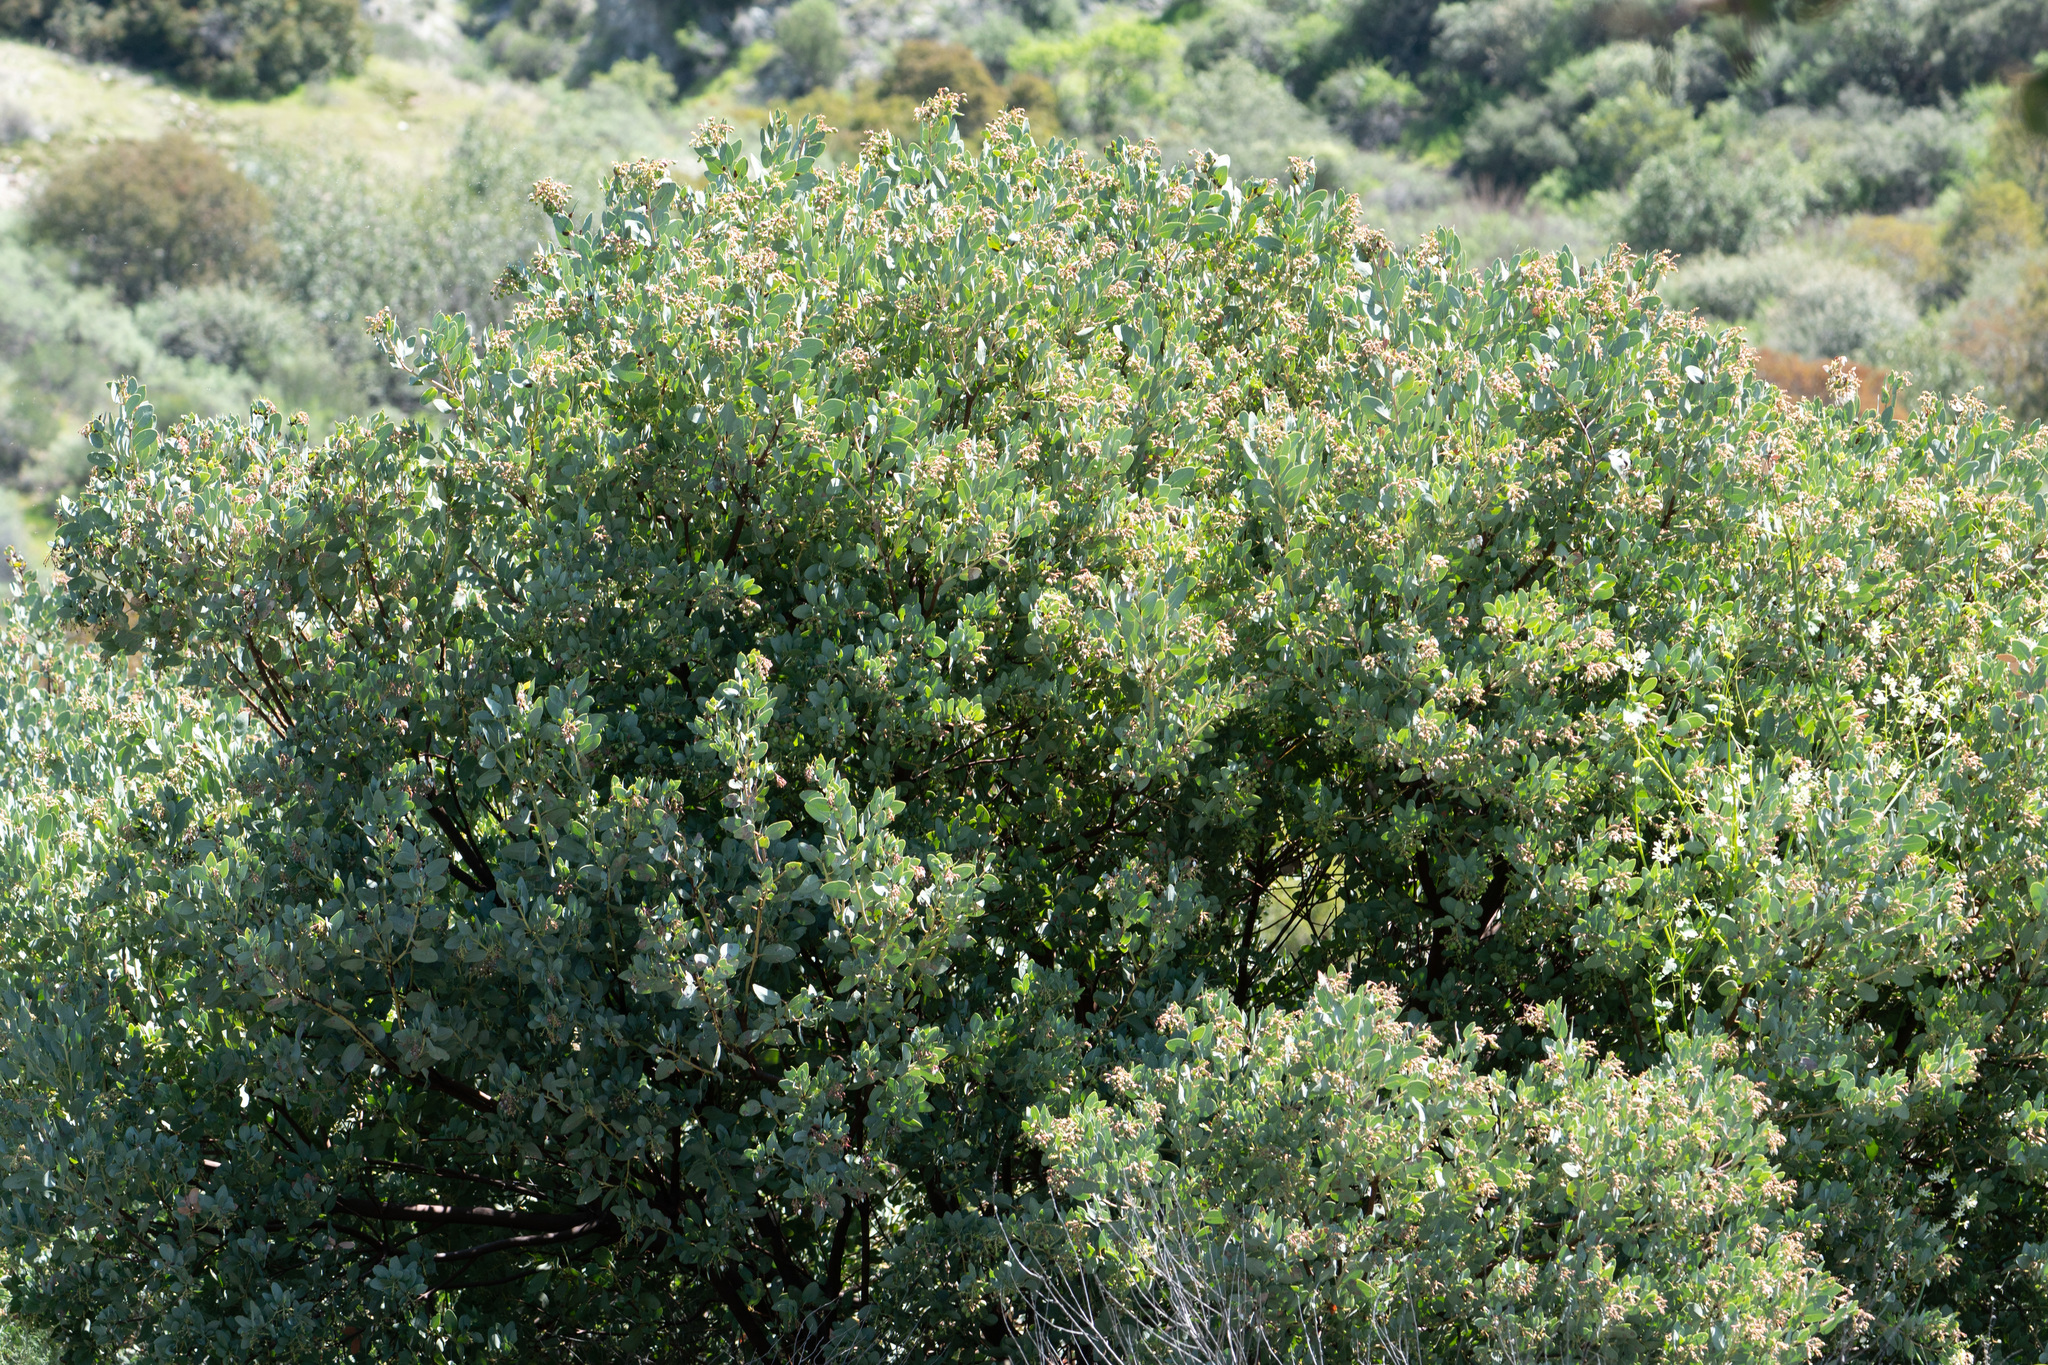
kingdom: Plantae
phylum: Tracheophyta
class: Magnoliopsida
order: Ericales
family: Ericaceae
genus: Arctostaphylos
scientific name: Arctostaphylos glauca
